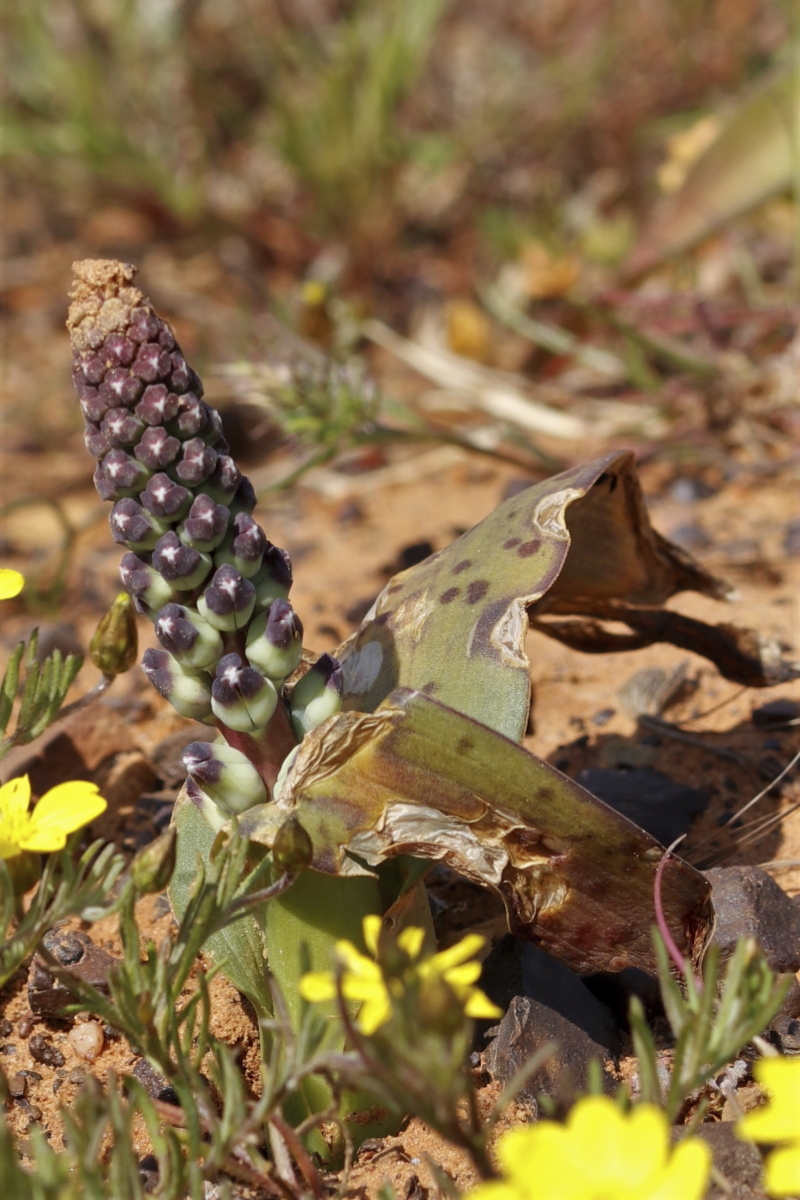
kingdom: Plantae
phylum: Tracheophyta
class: Liliopsida
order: Asparagales
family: Asparagaceae
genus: Lachenalia
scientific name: Lachenalia suaveolens
